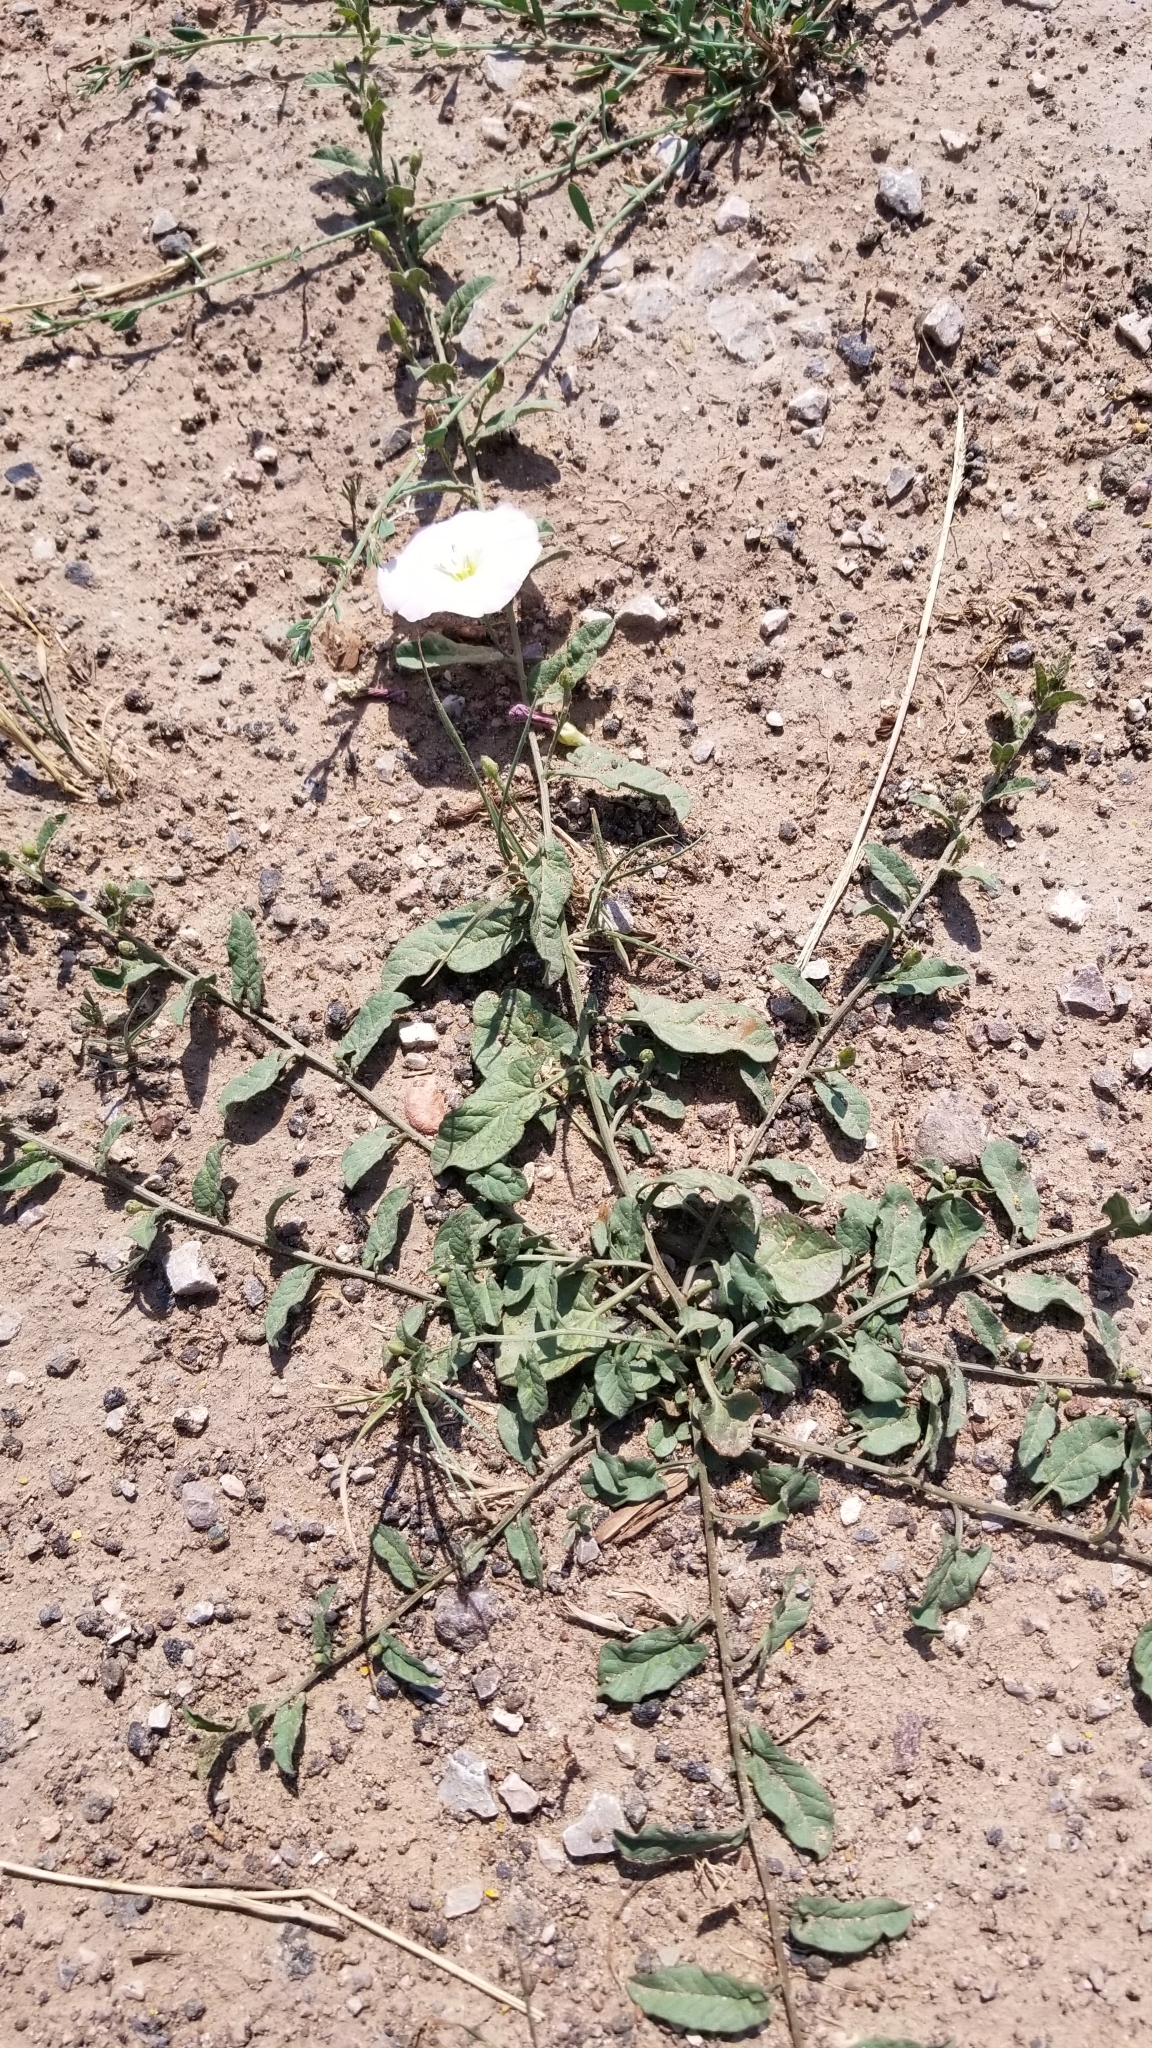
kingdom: Plantae
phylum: Tracheophyta
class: Magnoliopsida
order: Solanales
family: Convolvulaceae
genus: Convolvulus
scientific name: Convolvulus arvensis
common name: Field bindweed
